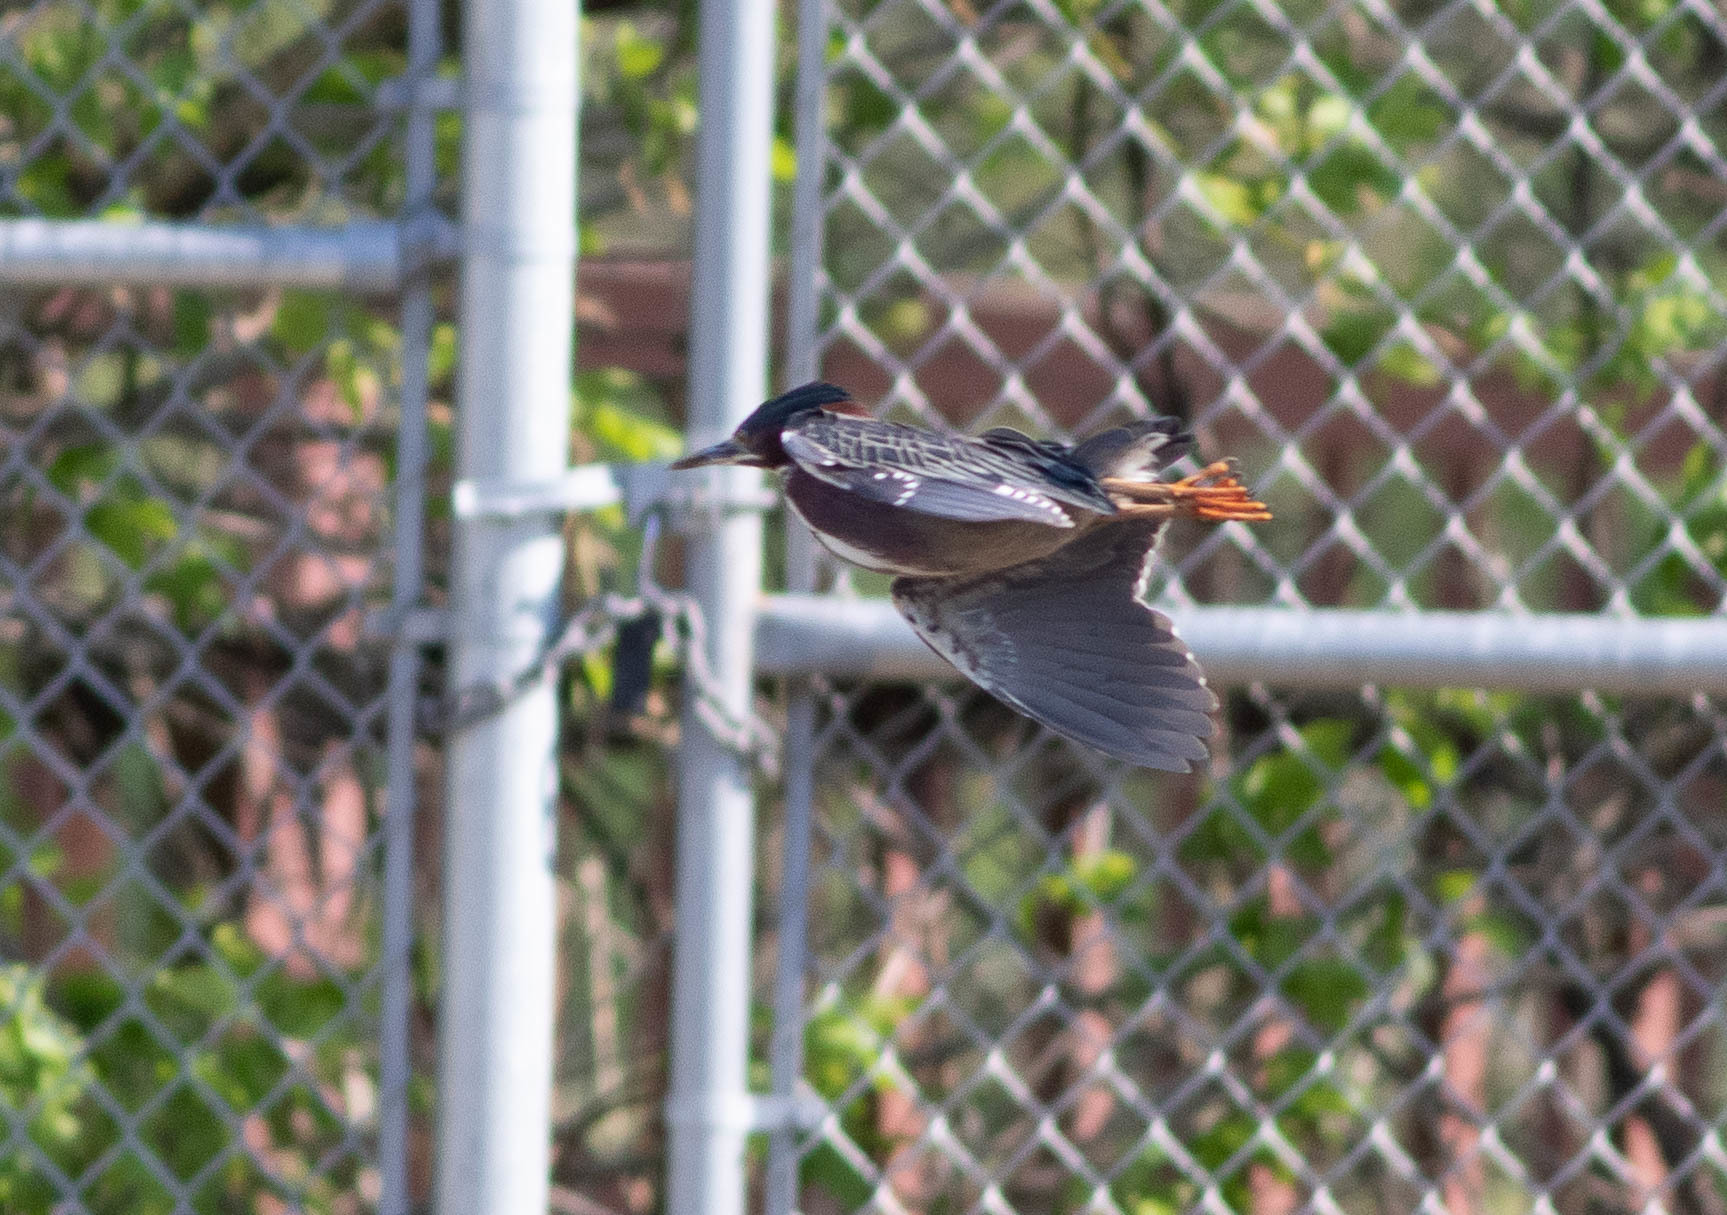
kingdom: Animalia
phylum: Chordata
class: Aves
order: Pelecaniformes
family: Ardeidae
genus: Butorides
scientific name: Butorides virescens
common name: Green heron
